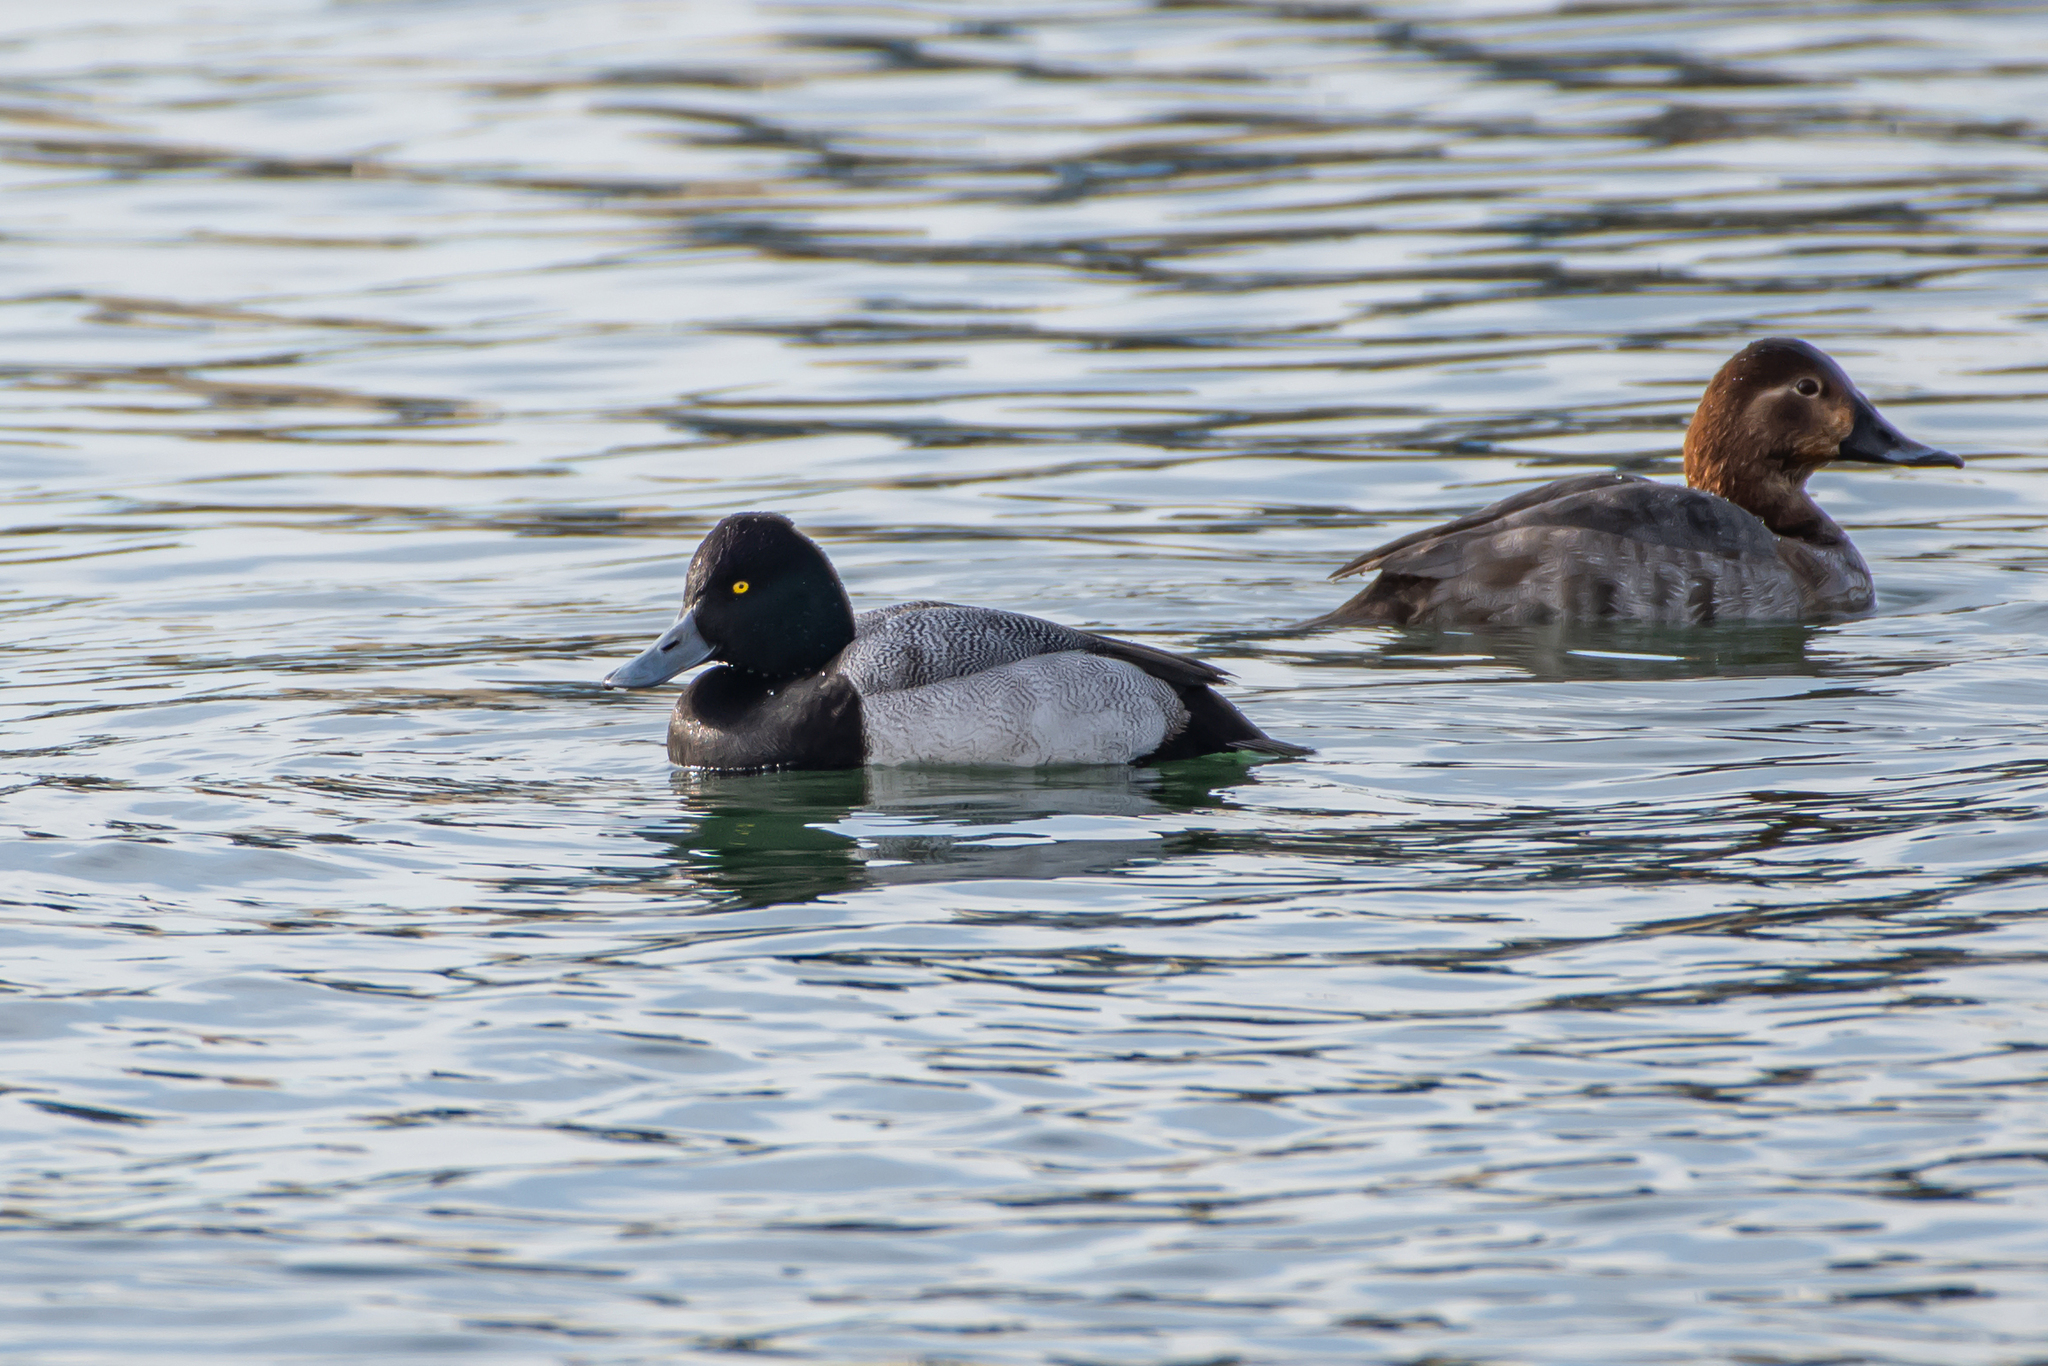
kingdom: Animalia
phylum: Chordata
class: Aves
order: Anseriformes
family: Anatidae
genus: Aythya
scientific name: Aythya affinis
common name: Lesser scaup
